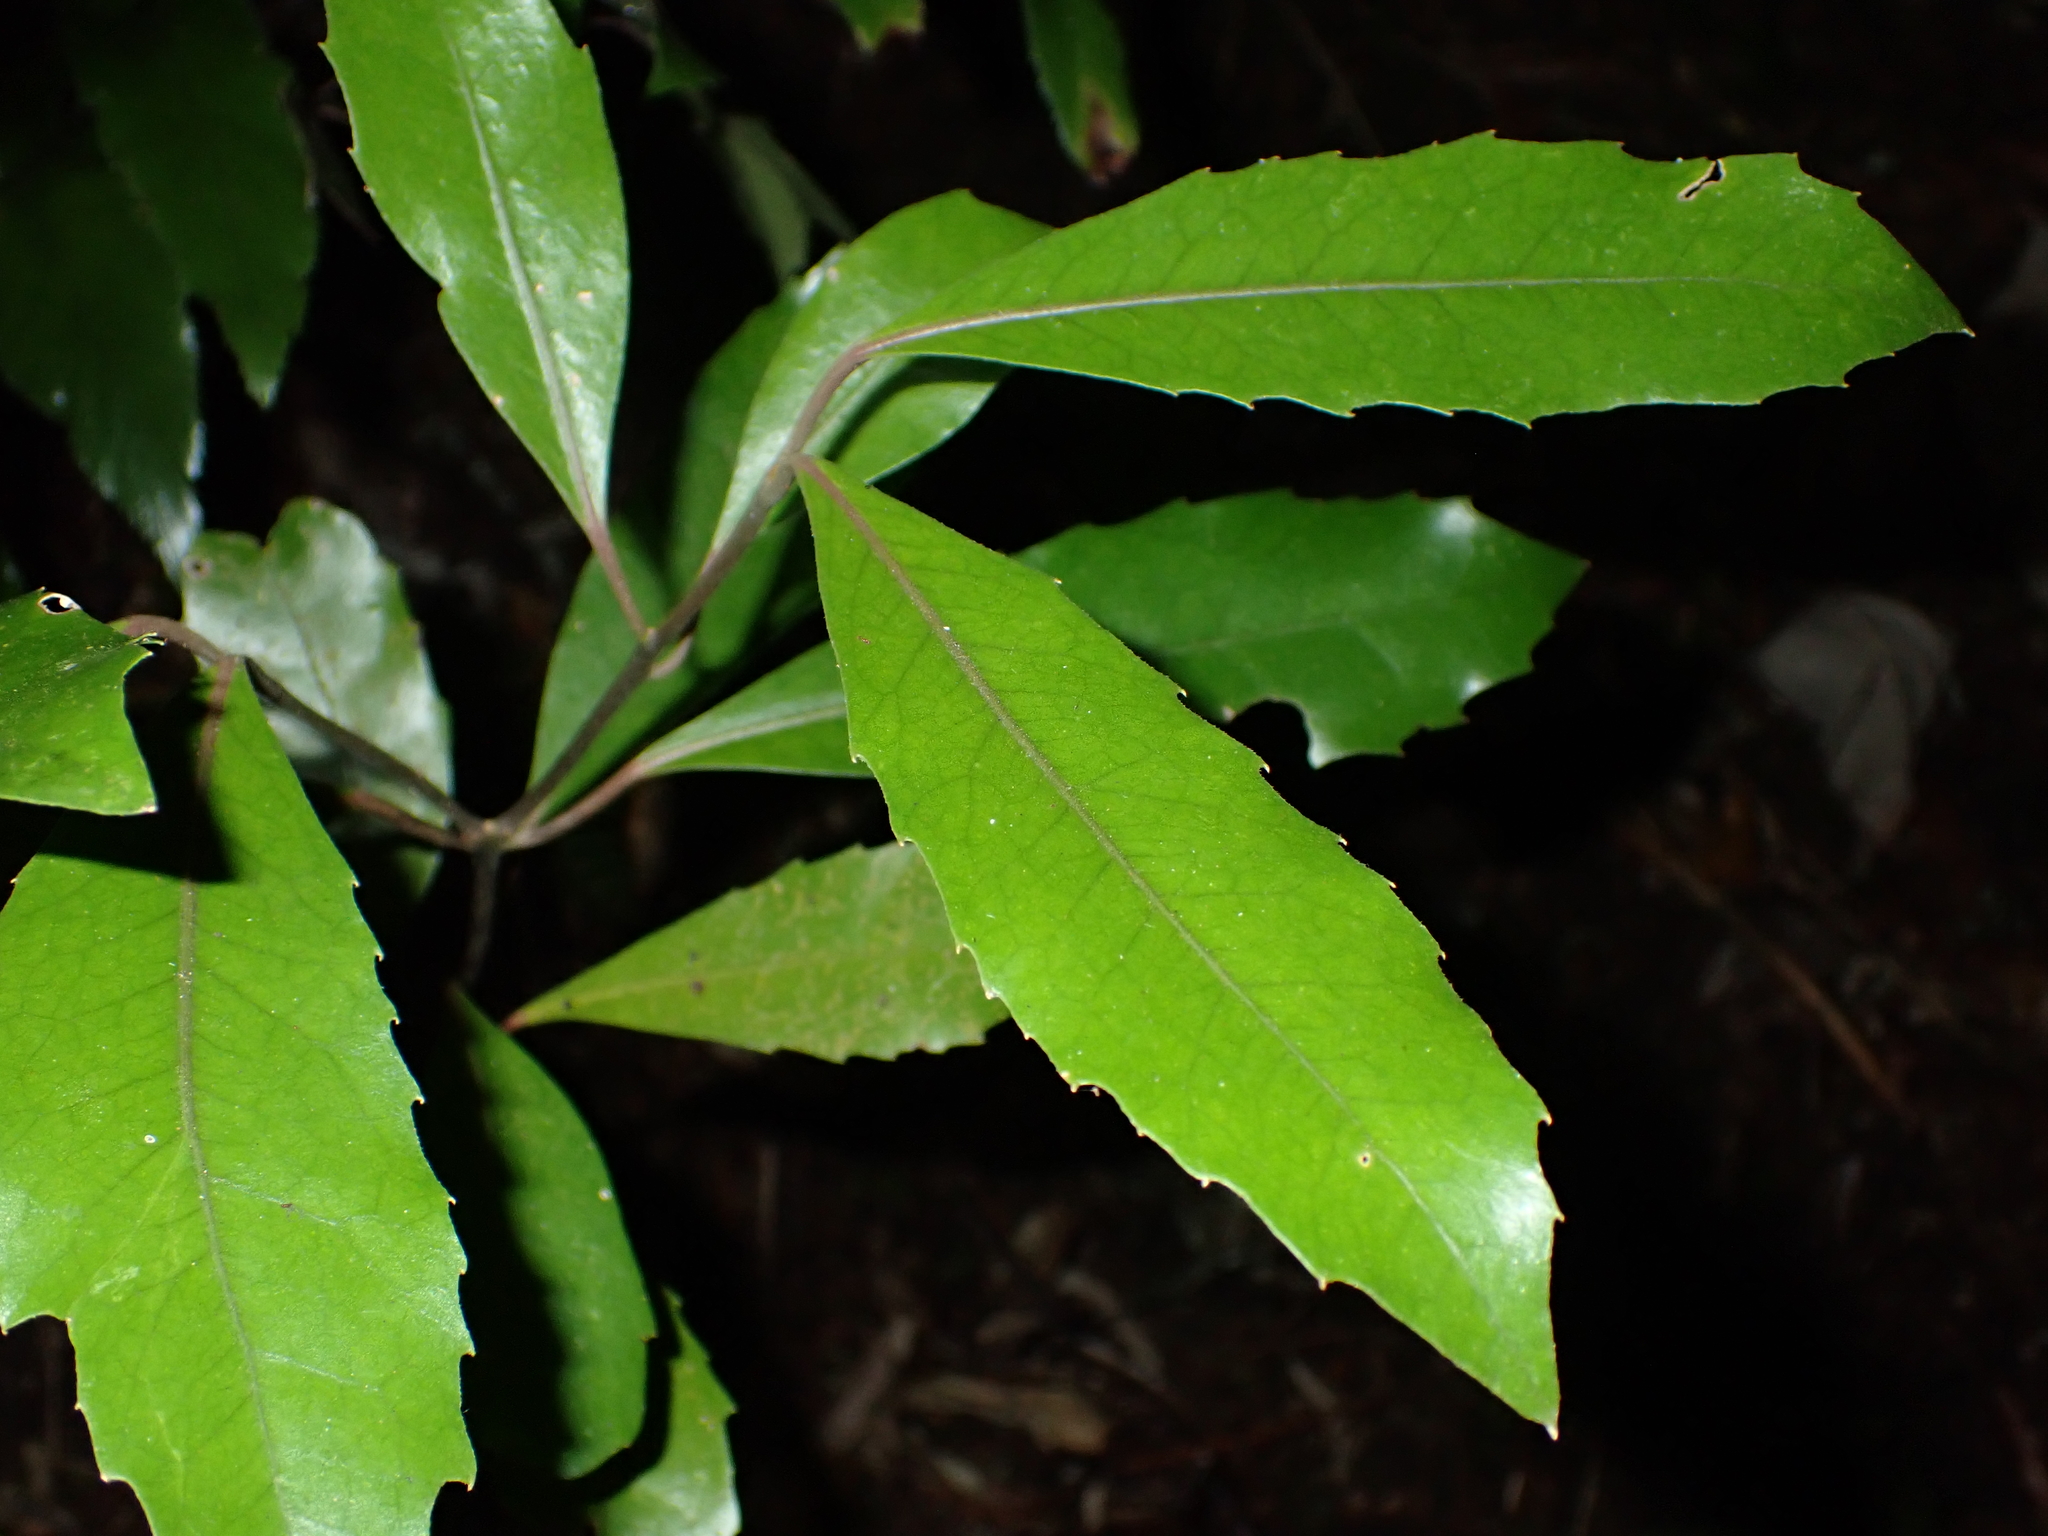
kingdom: Plantae
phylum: Tracheophyta
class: Magnoliopsida
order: Laurales
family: Monimiaceae
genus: Hedycarya
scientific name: Hedycarya arborea
